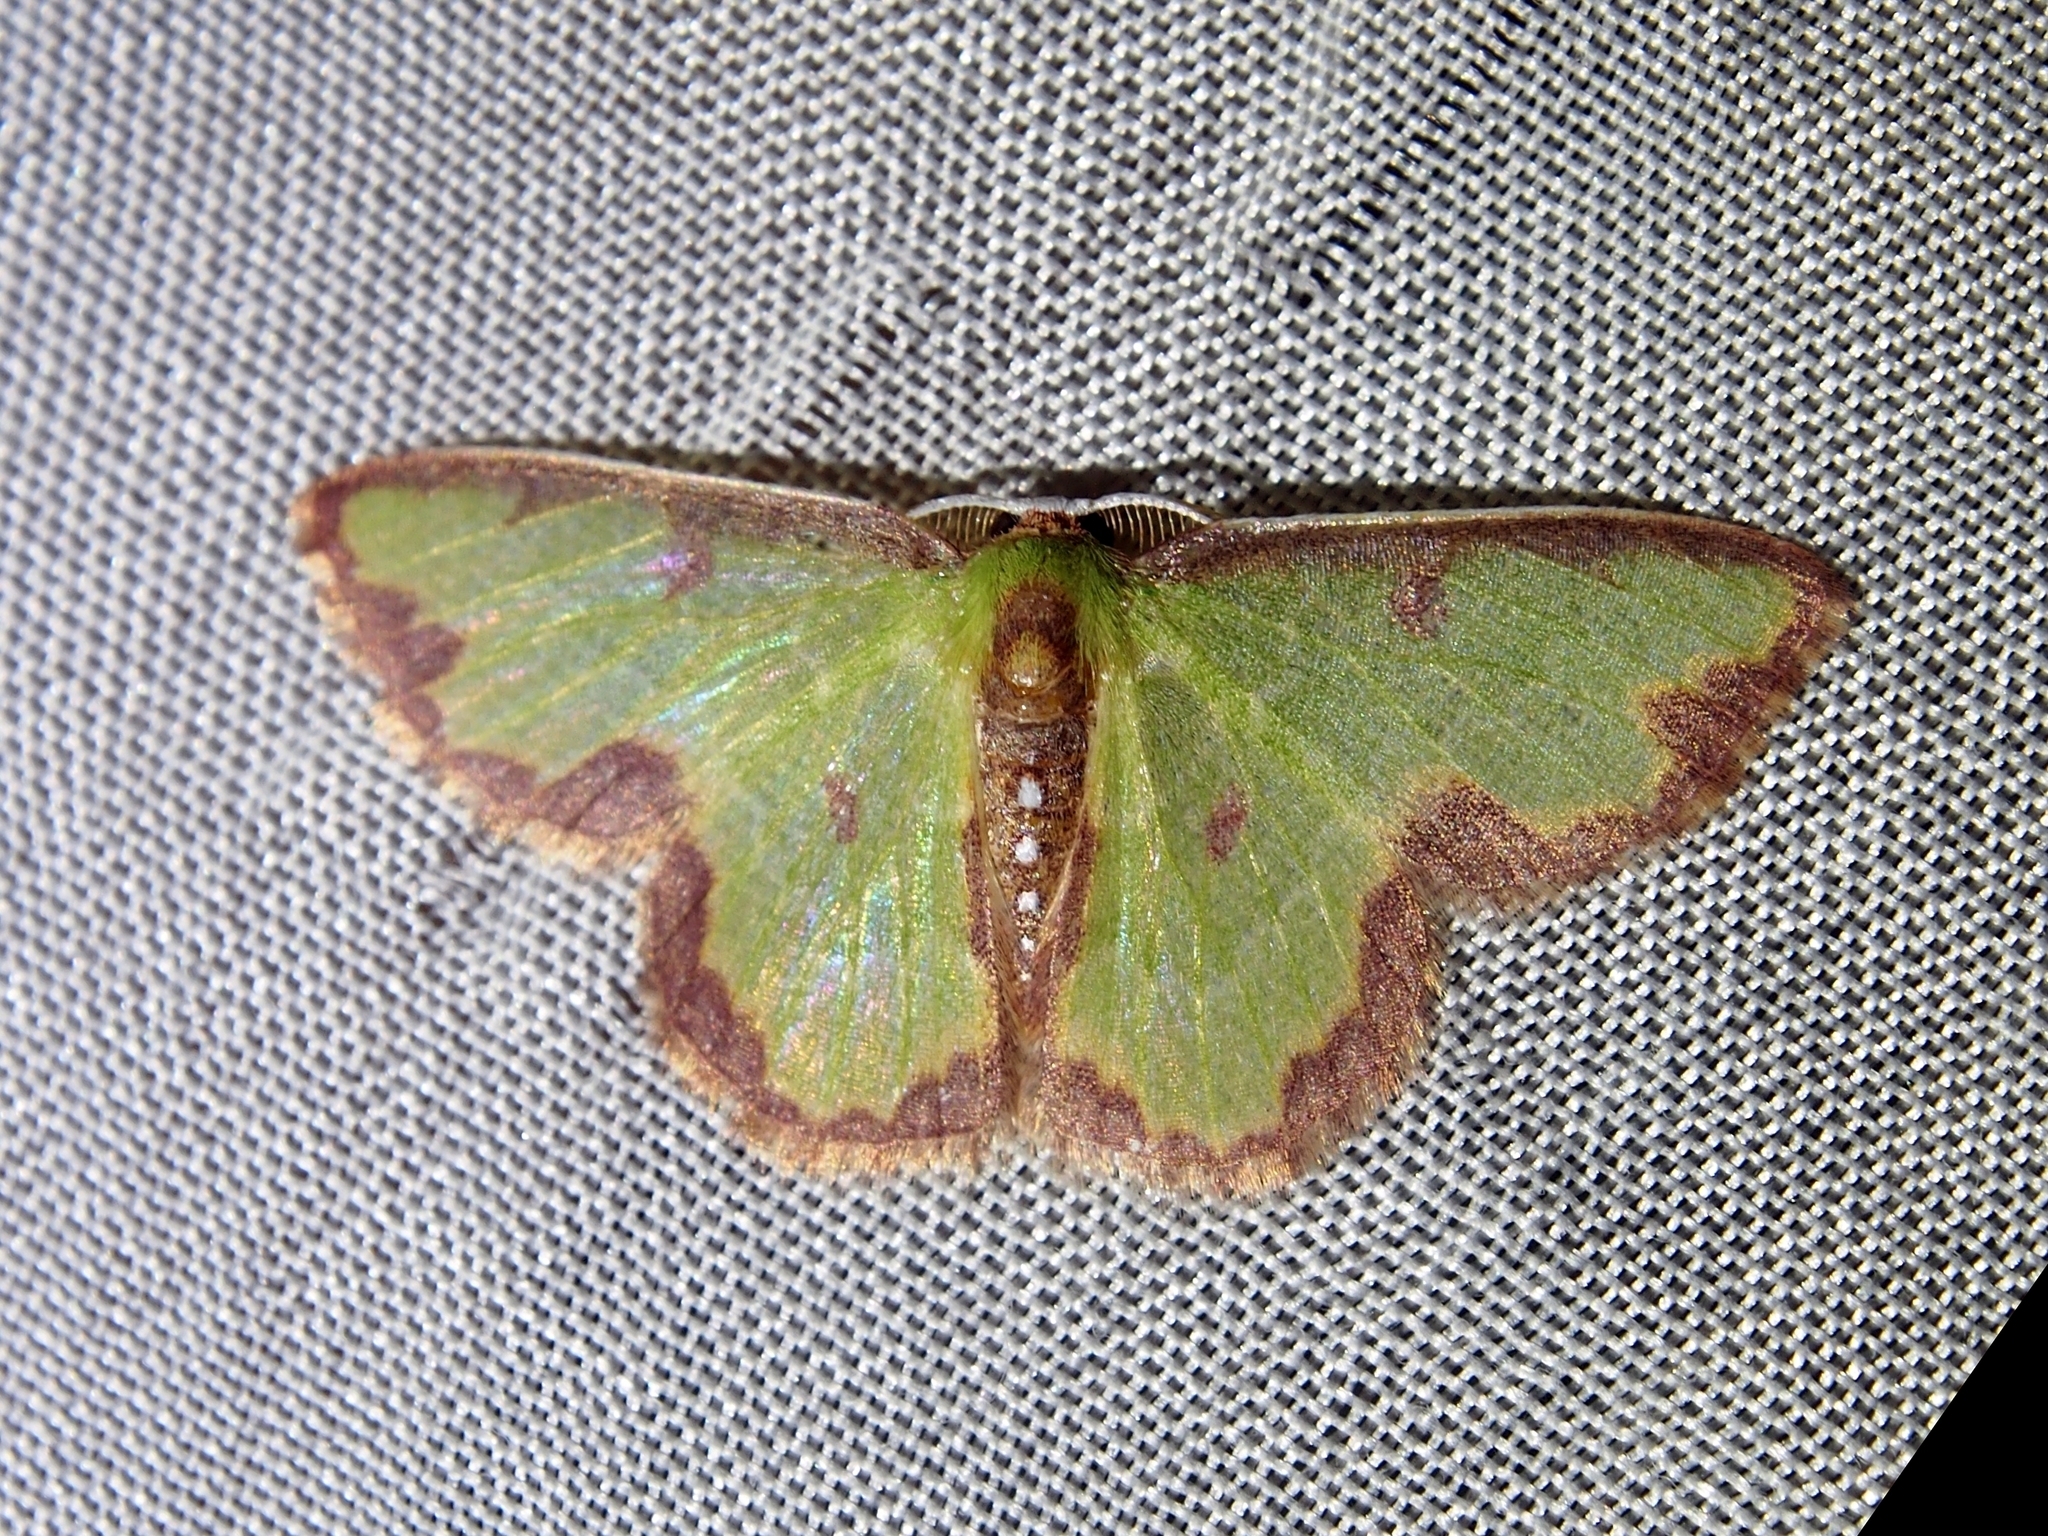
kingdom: Animalia
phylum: Arthropoda
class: Insecta
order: Lepidoptera
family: Geometridae
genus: Synchlora
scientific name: Synchlora dependens
